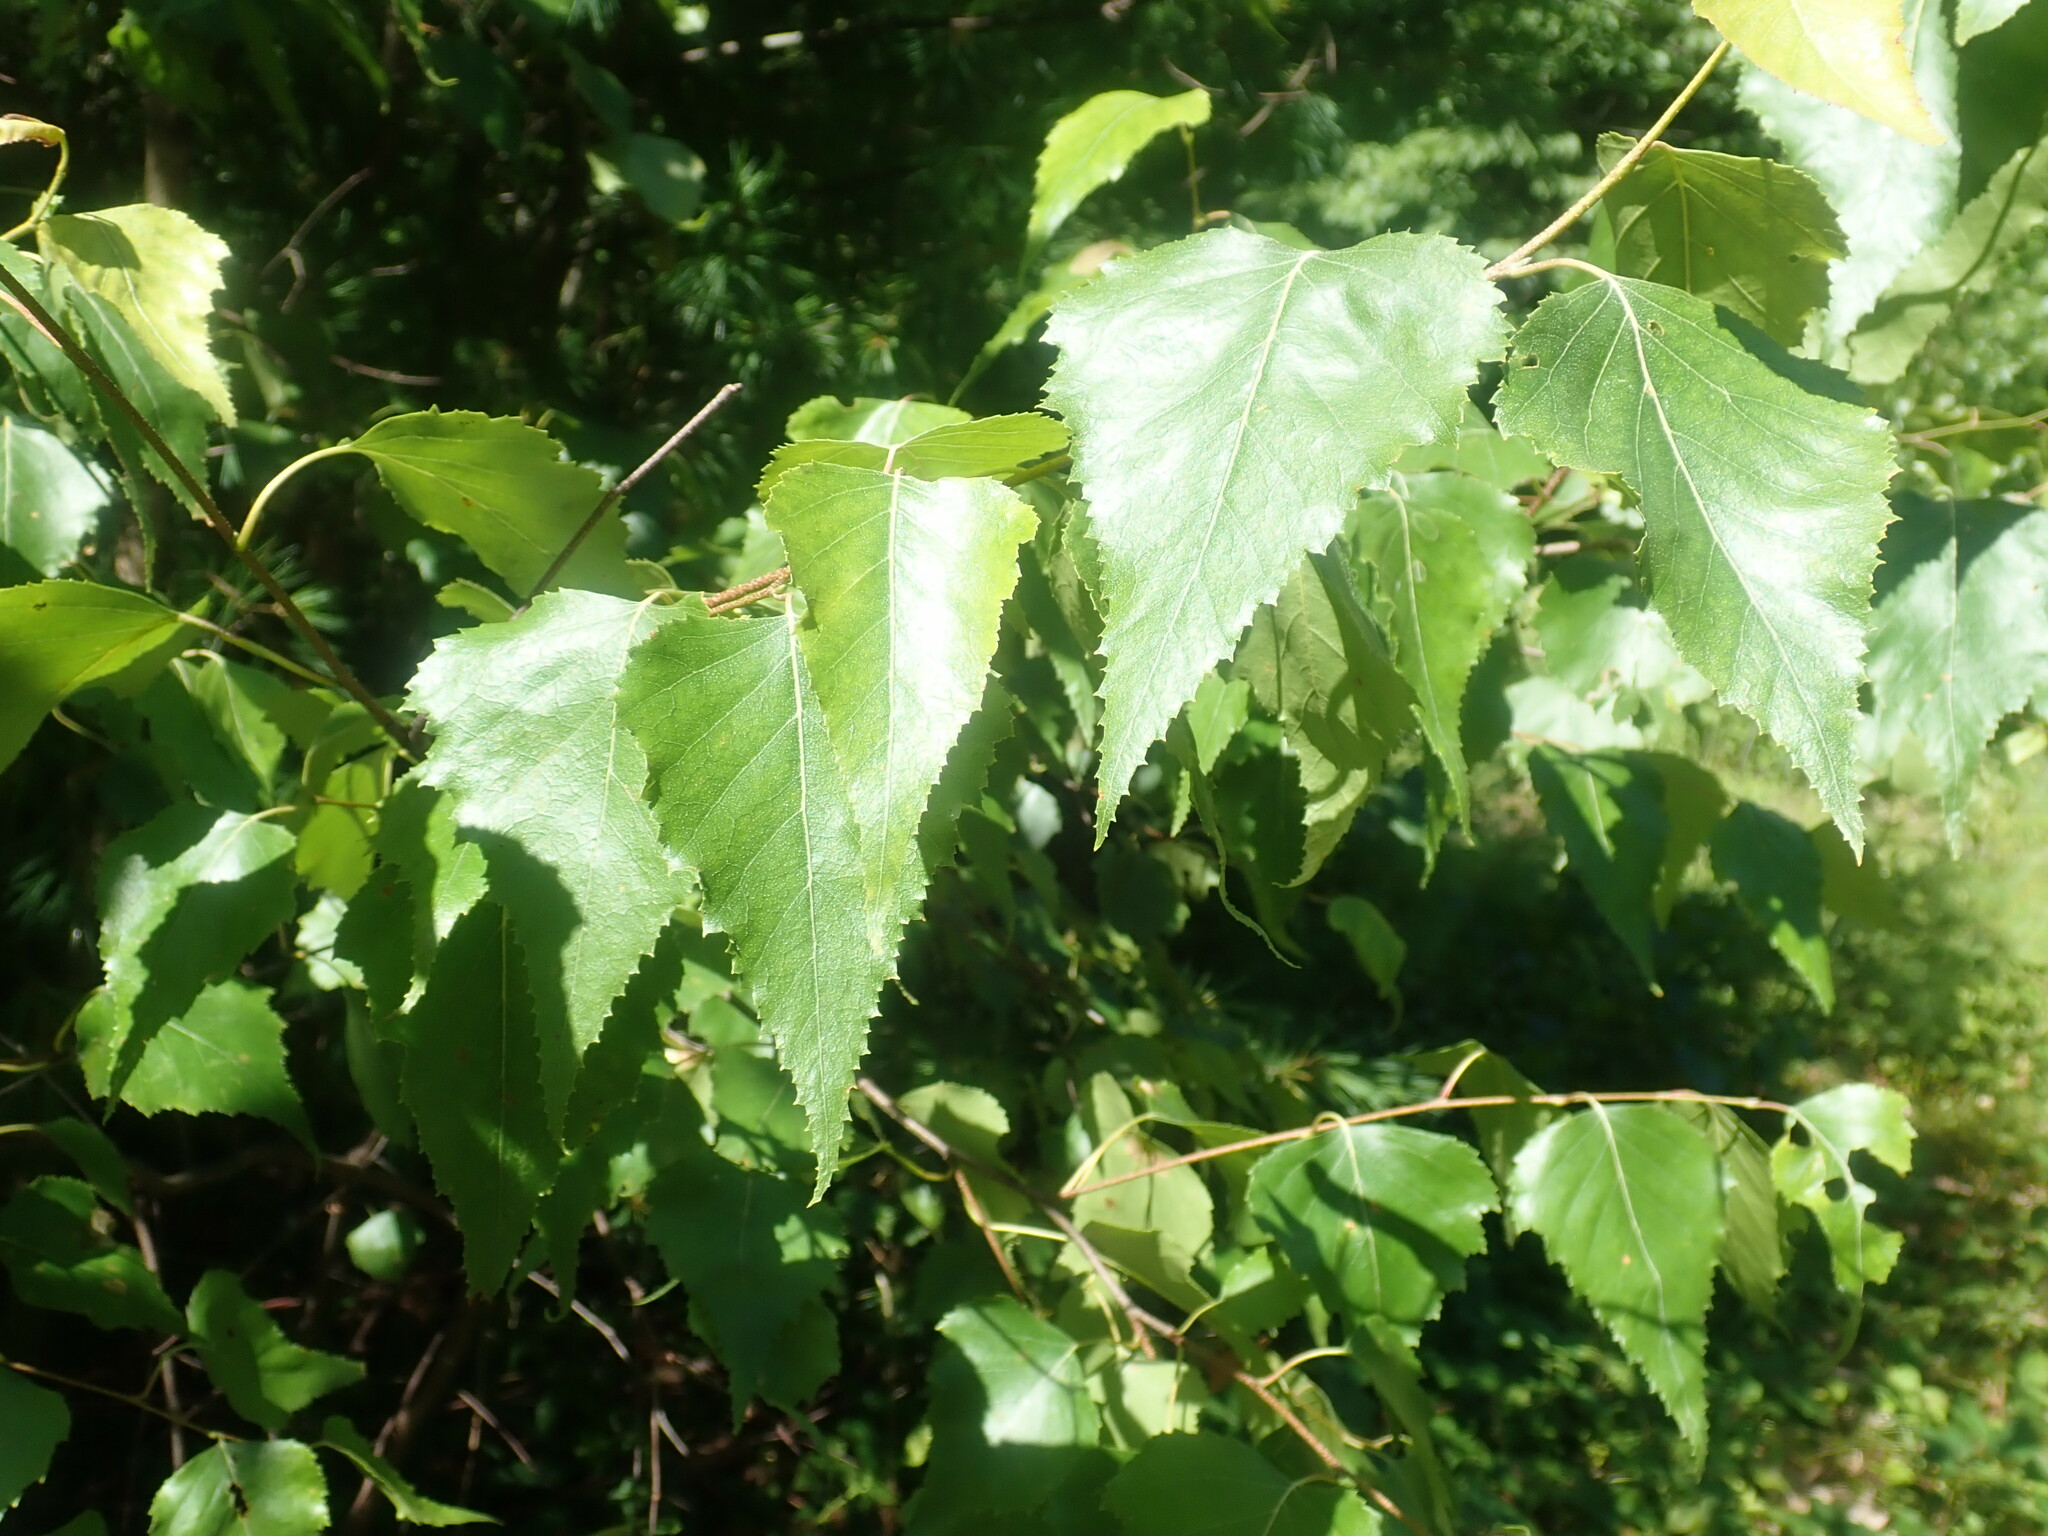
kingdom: Plantae
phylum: Tracheophyta
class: Magnoliopsida
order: Fagales
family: Betulaceae
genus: Betula
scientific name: Betula populifolia
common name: Fire birch
